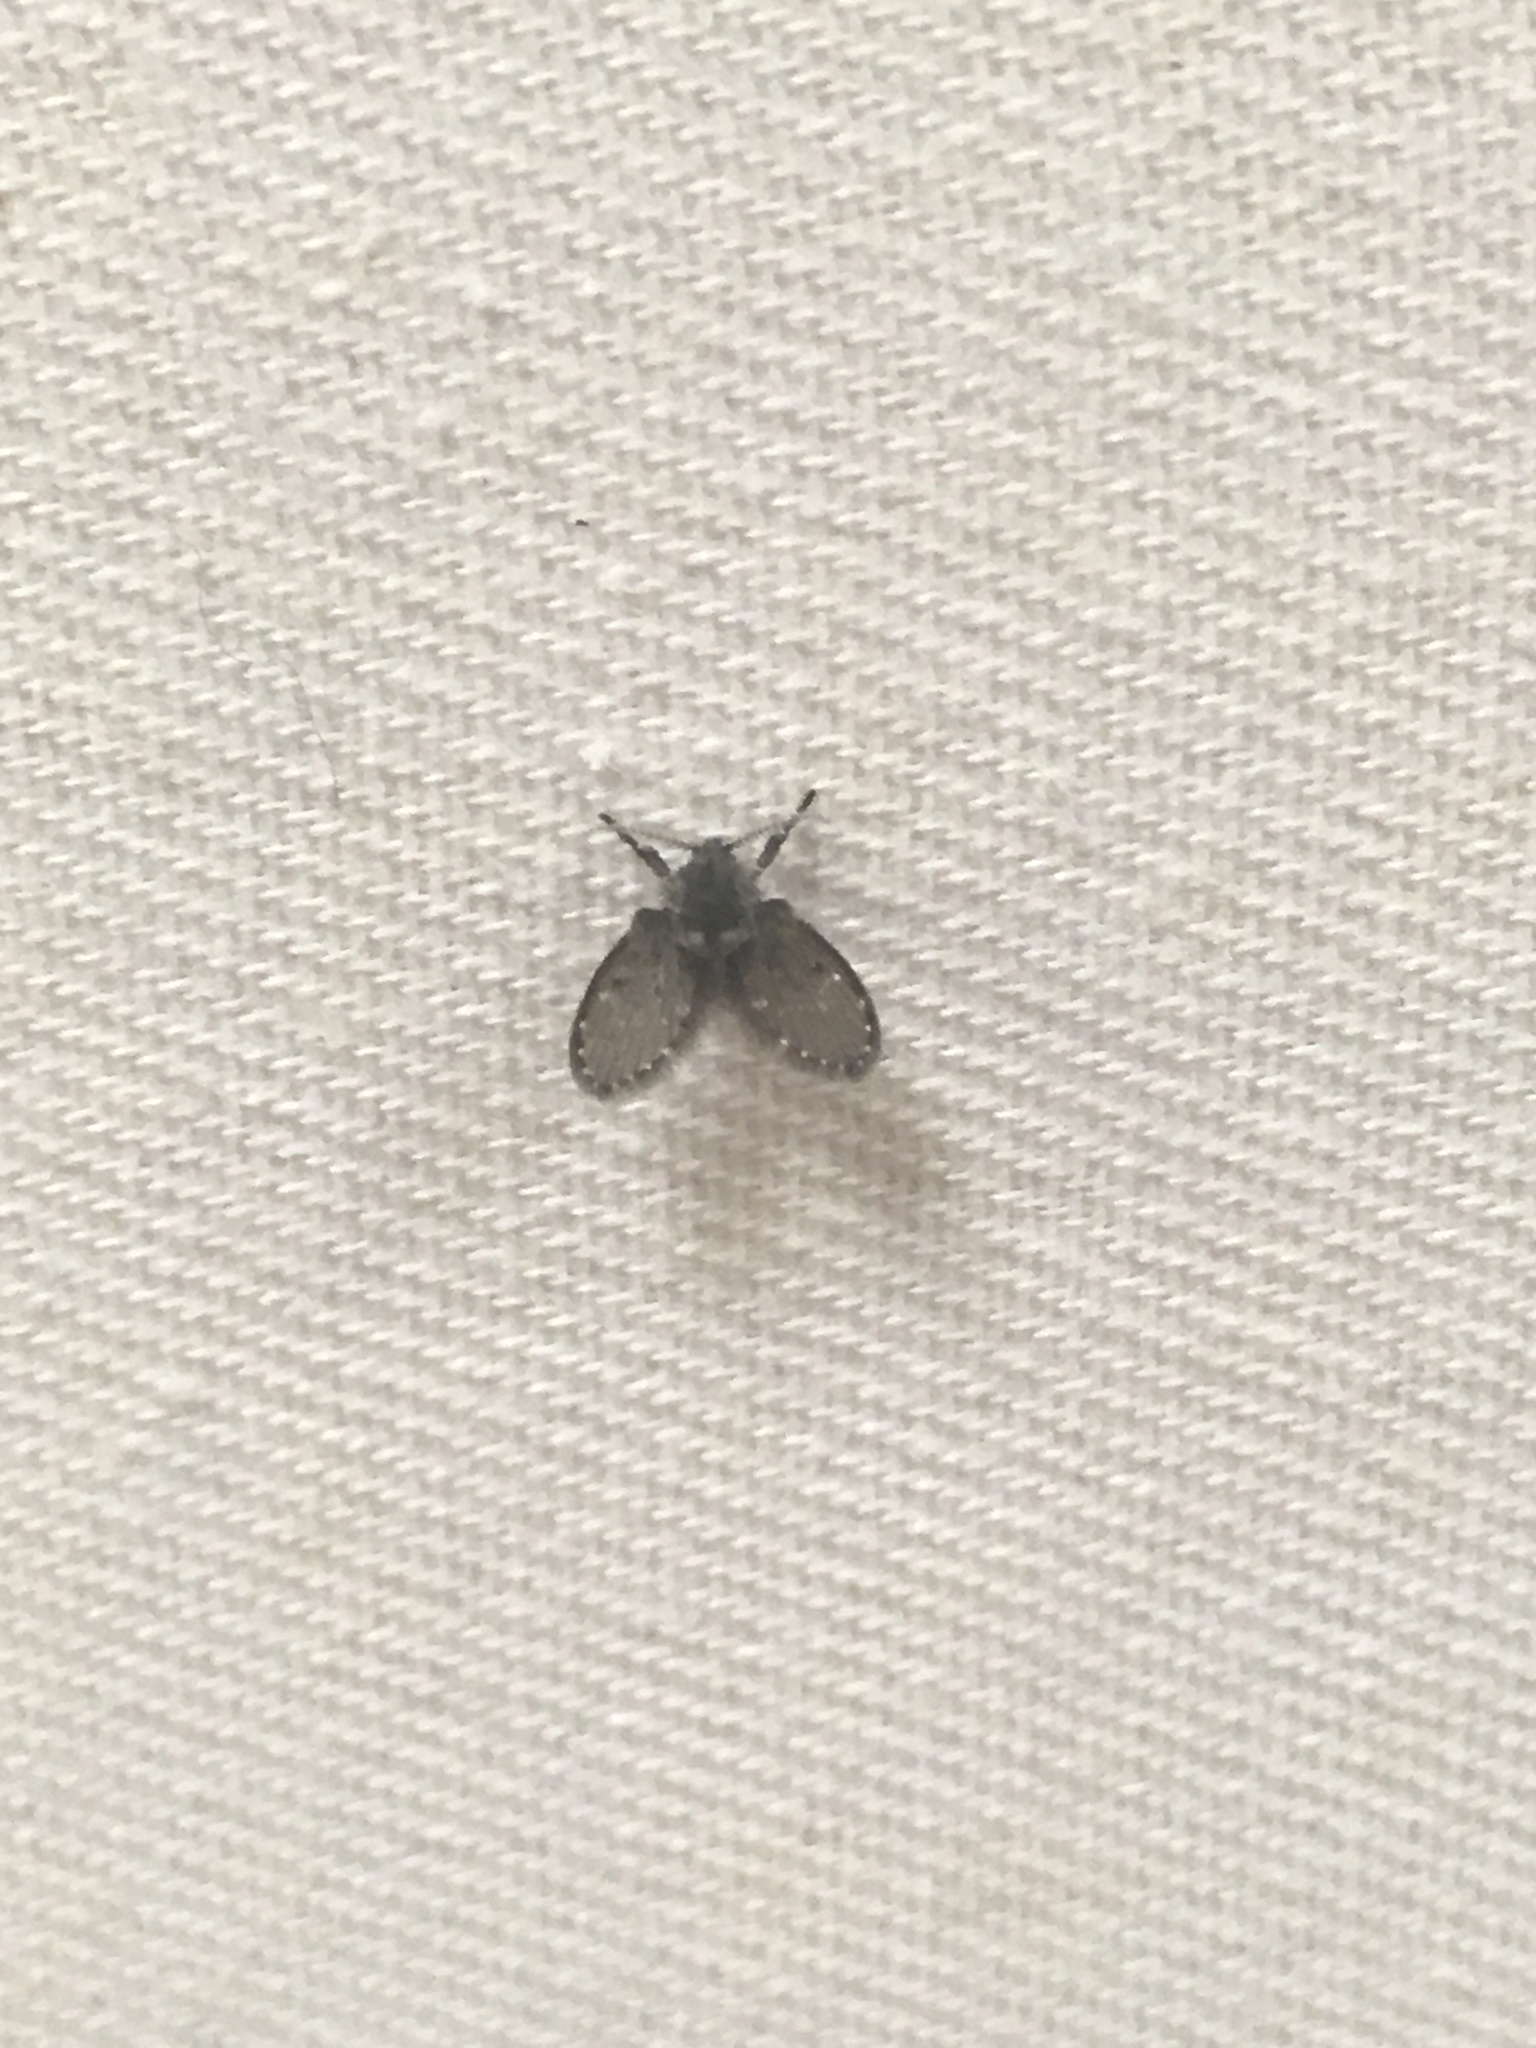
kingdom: Animalia
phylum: Arthropoda
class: Insecta
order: Diptera
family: Psychodidae
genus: Clogmia
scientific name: Clogmia albipunctatus
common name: White-spotted moth fly
